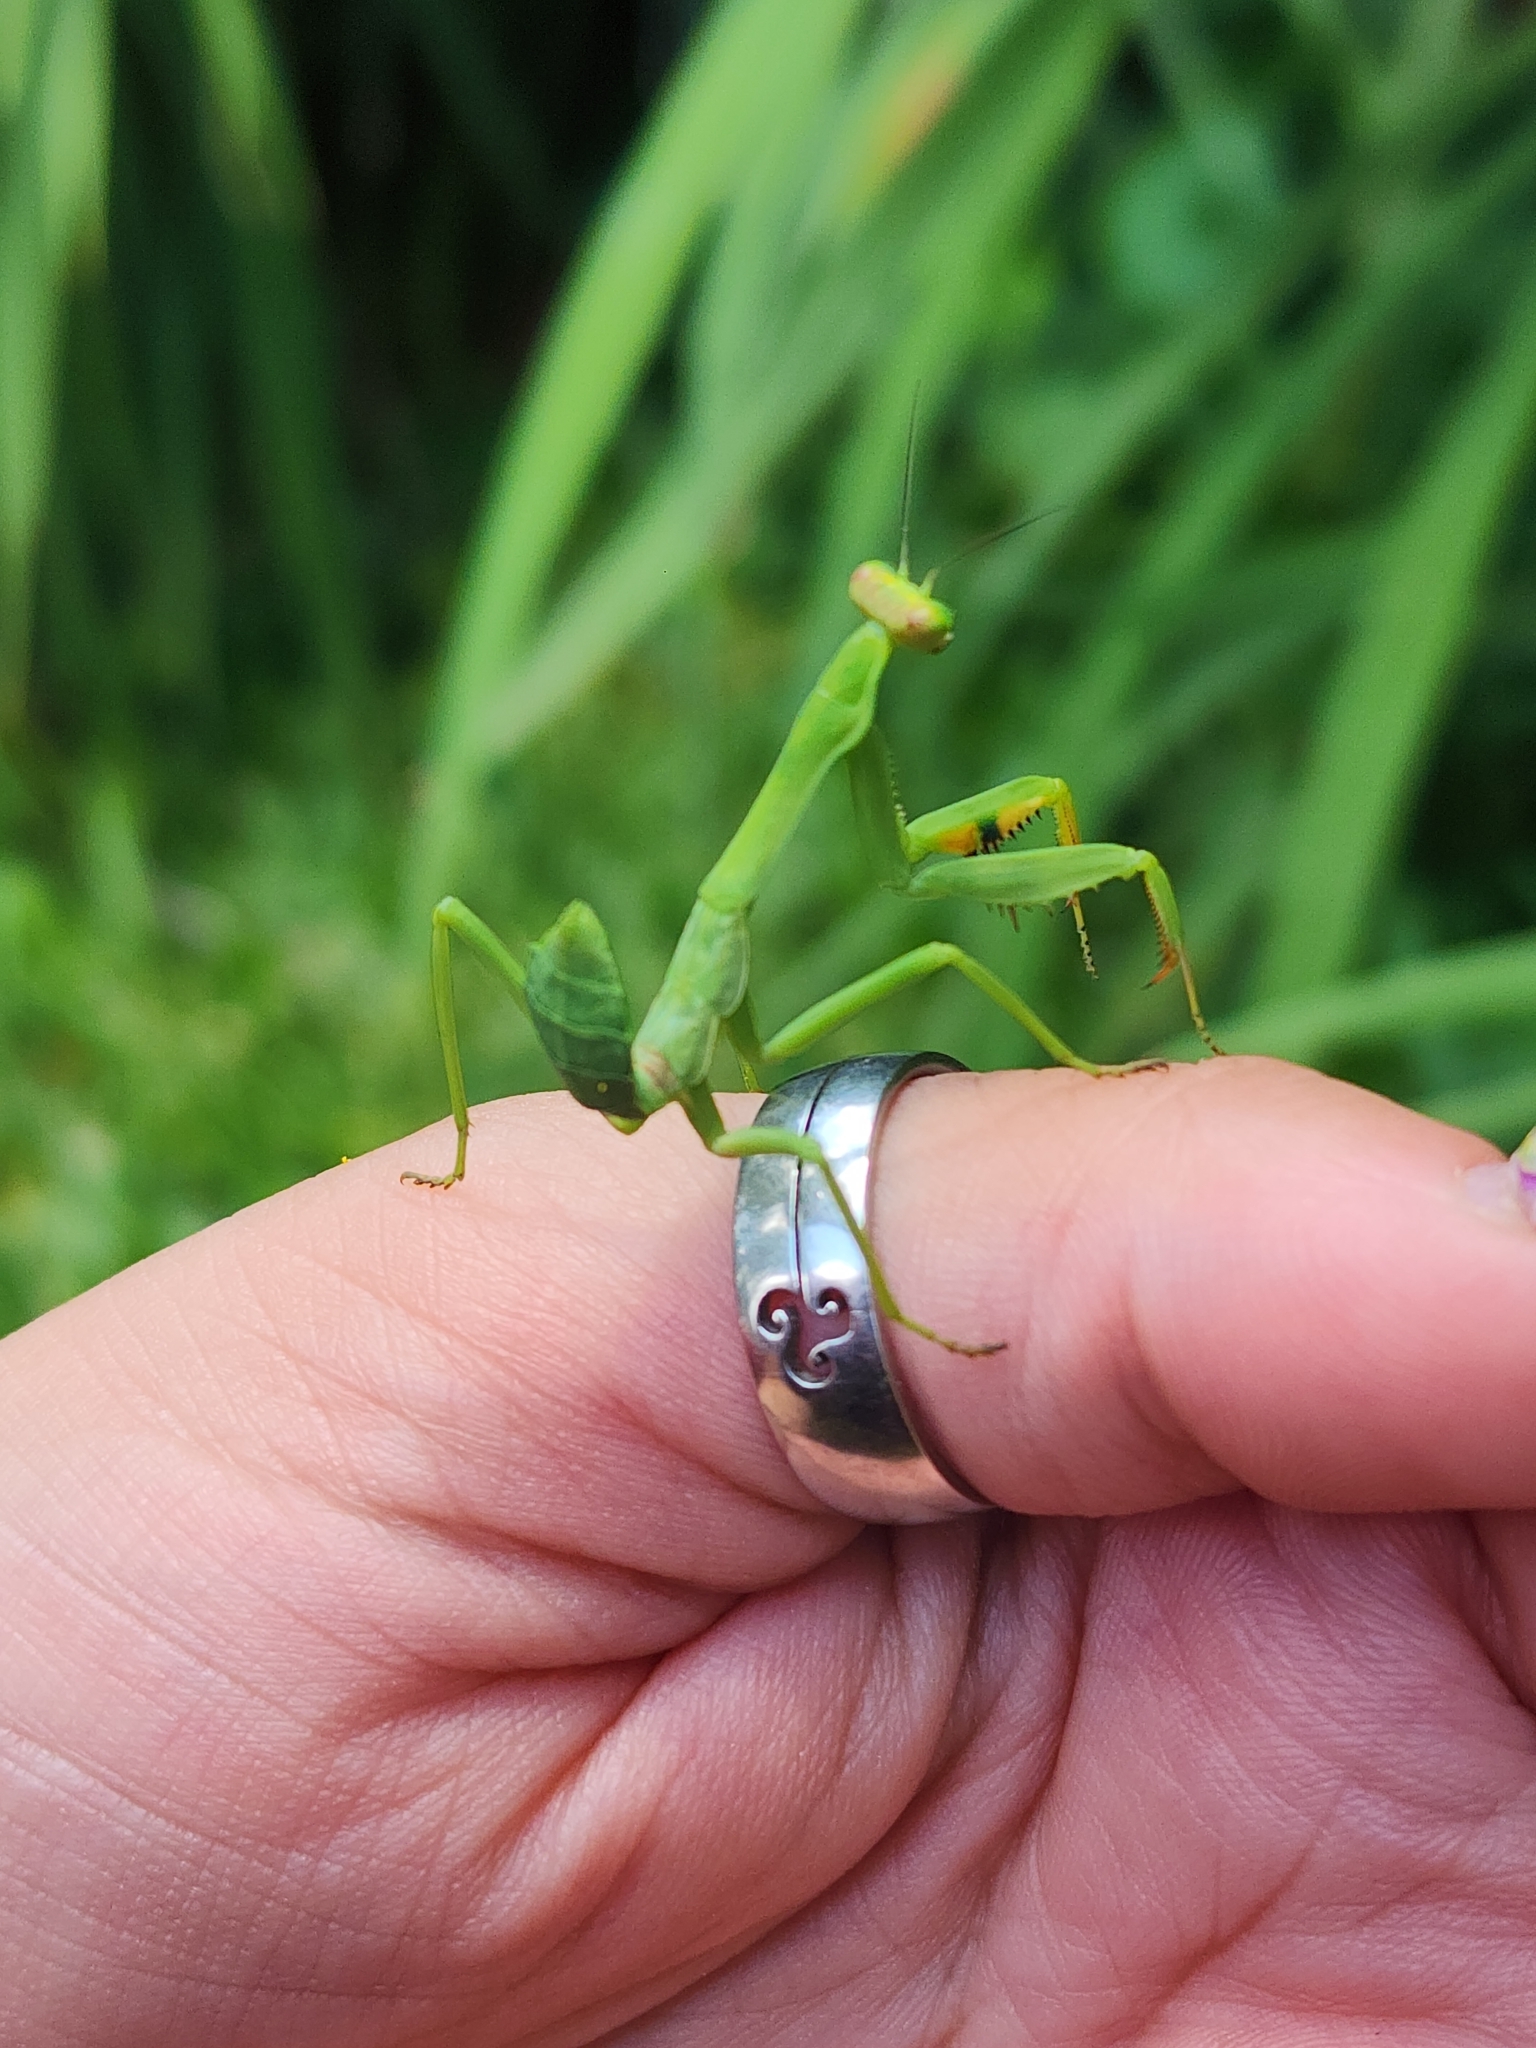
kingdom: Animalia
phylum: Arthropoda
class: Insecta
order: Mantodea
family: Mantidae
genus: Stagmatoptera
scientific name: Stagmatoptera hyaloptera
